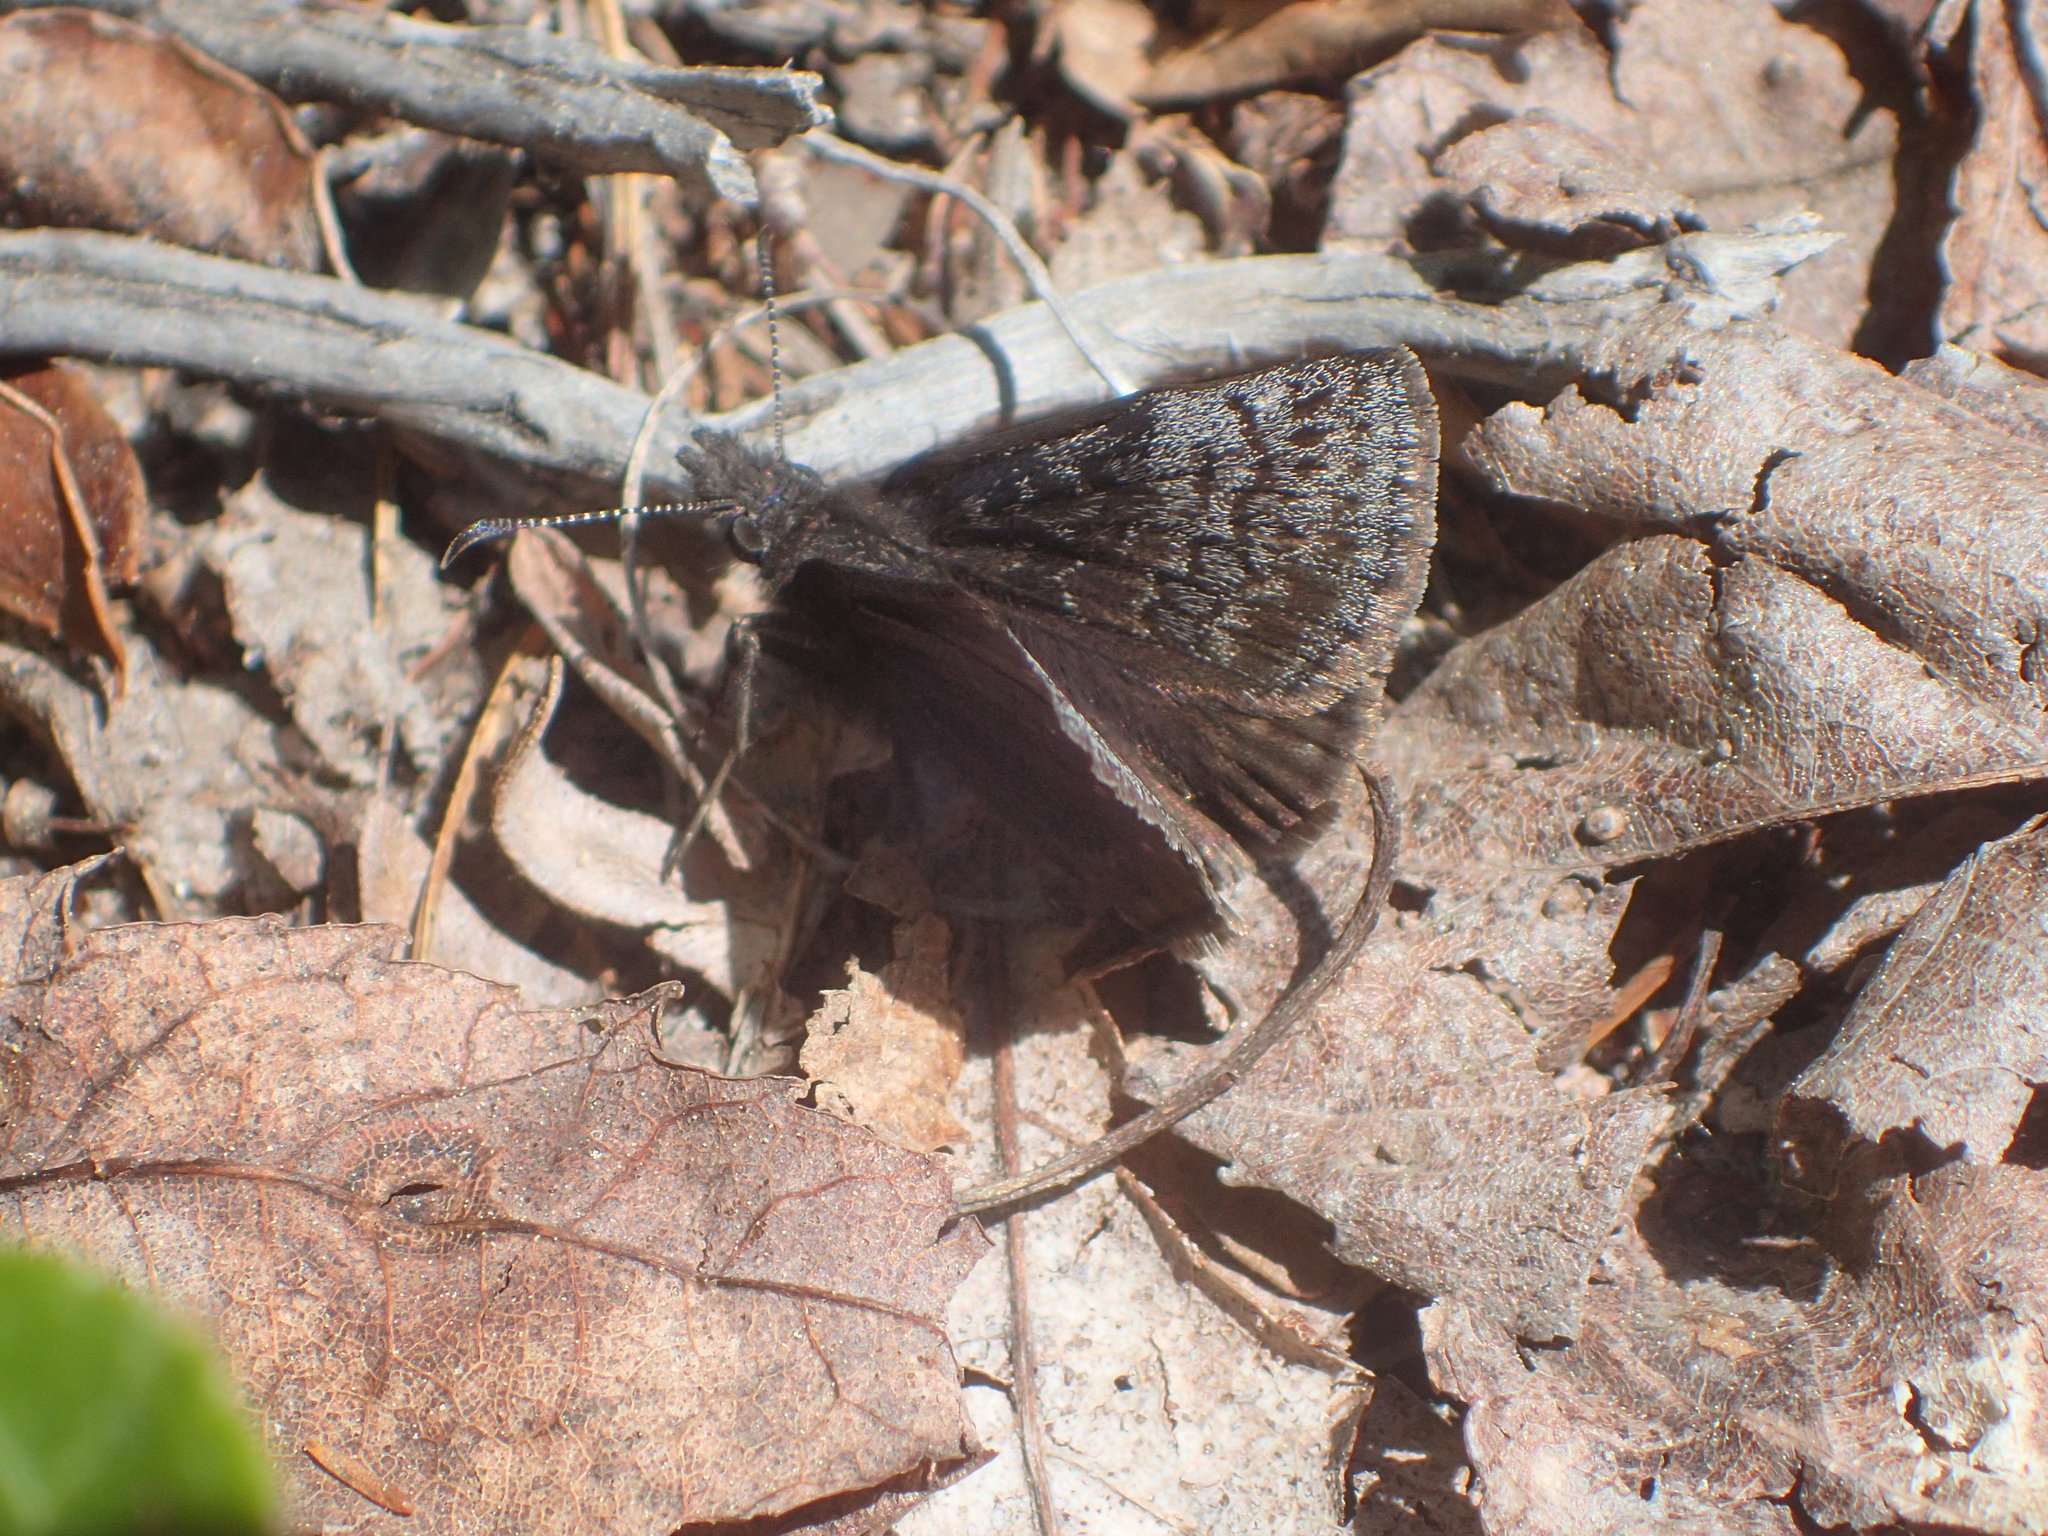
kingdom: Animalia
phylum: Arthropoda
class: Insecta
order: Lepidoptera
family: Hesperiidae
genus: Erynnis
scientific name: Erynnis icelus
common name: Dreamy duskywing
